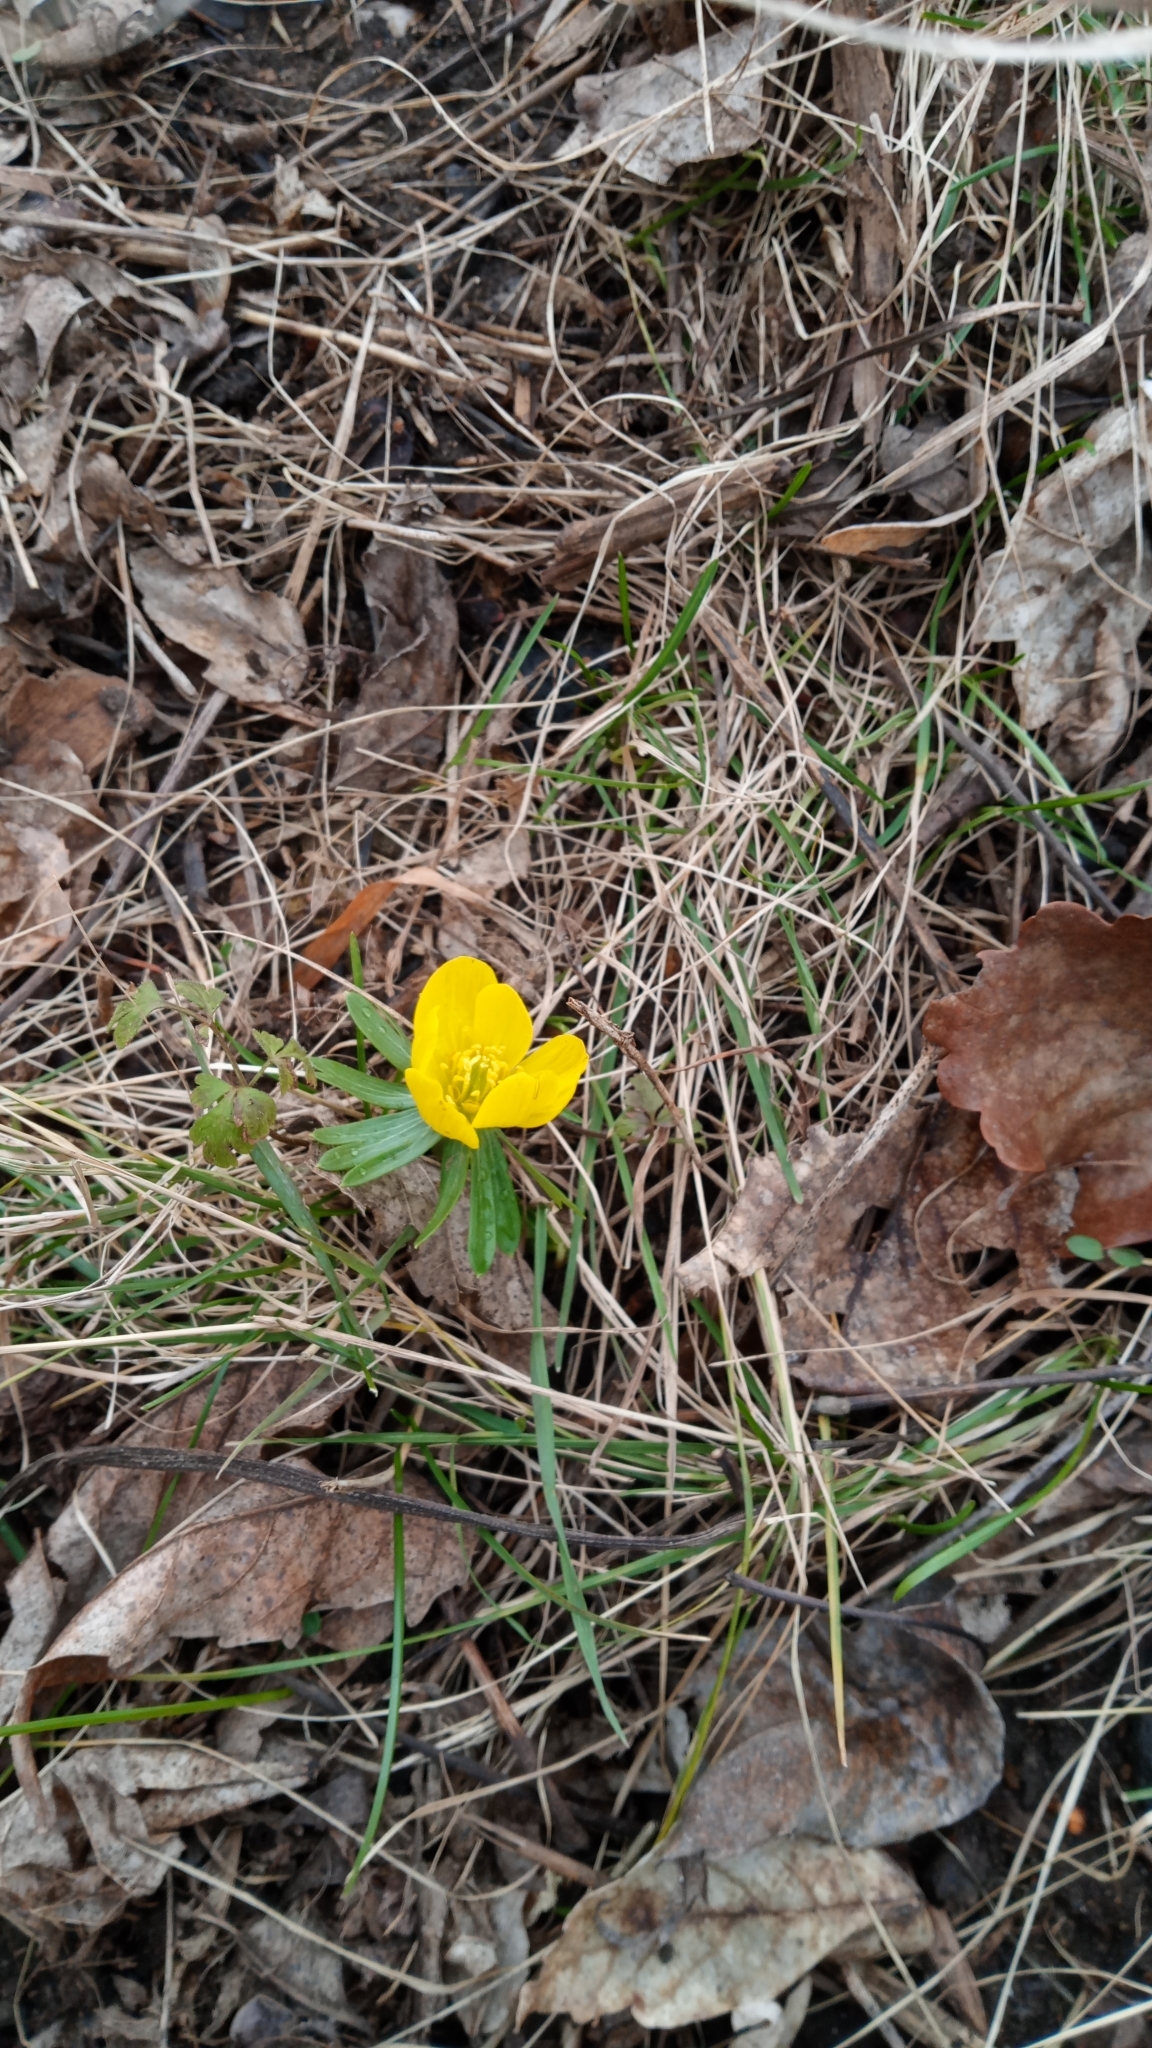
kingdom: Plantae
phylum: Tracheophyta
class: Magnoliopsida
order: Ranunculales
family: Ranunculaceae
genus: Eranthis
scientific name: Eranthis hyemalis
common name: Winter aconite
